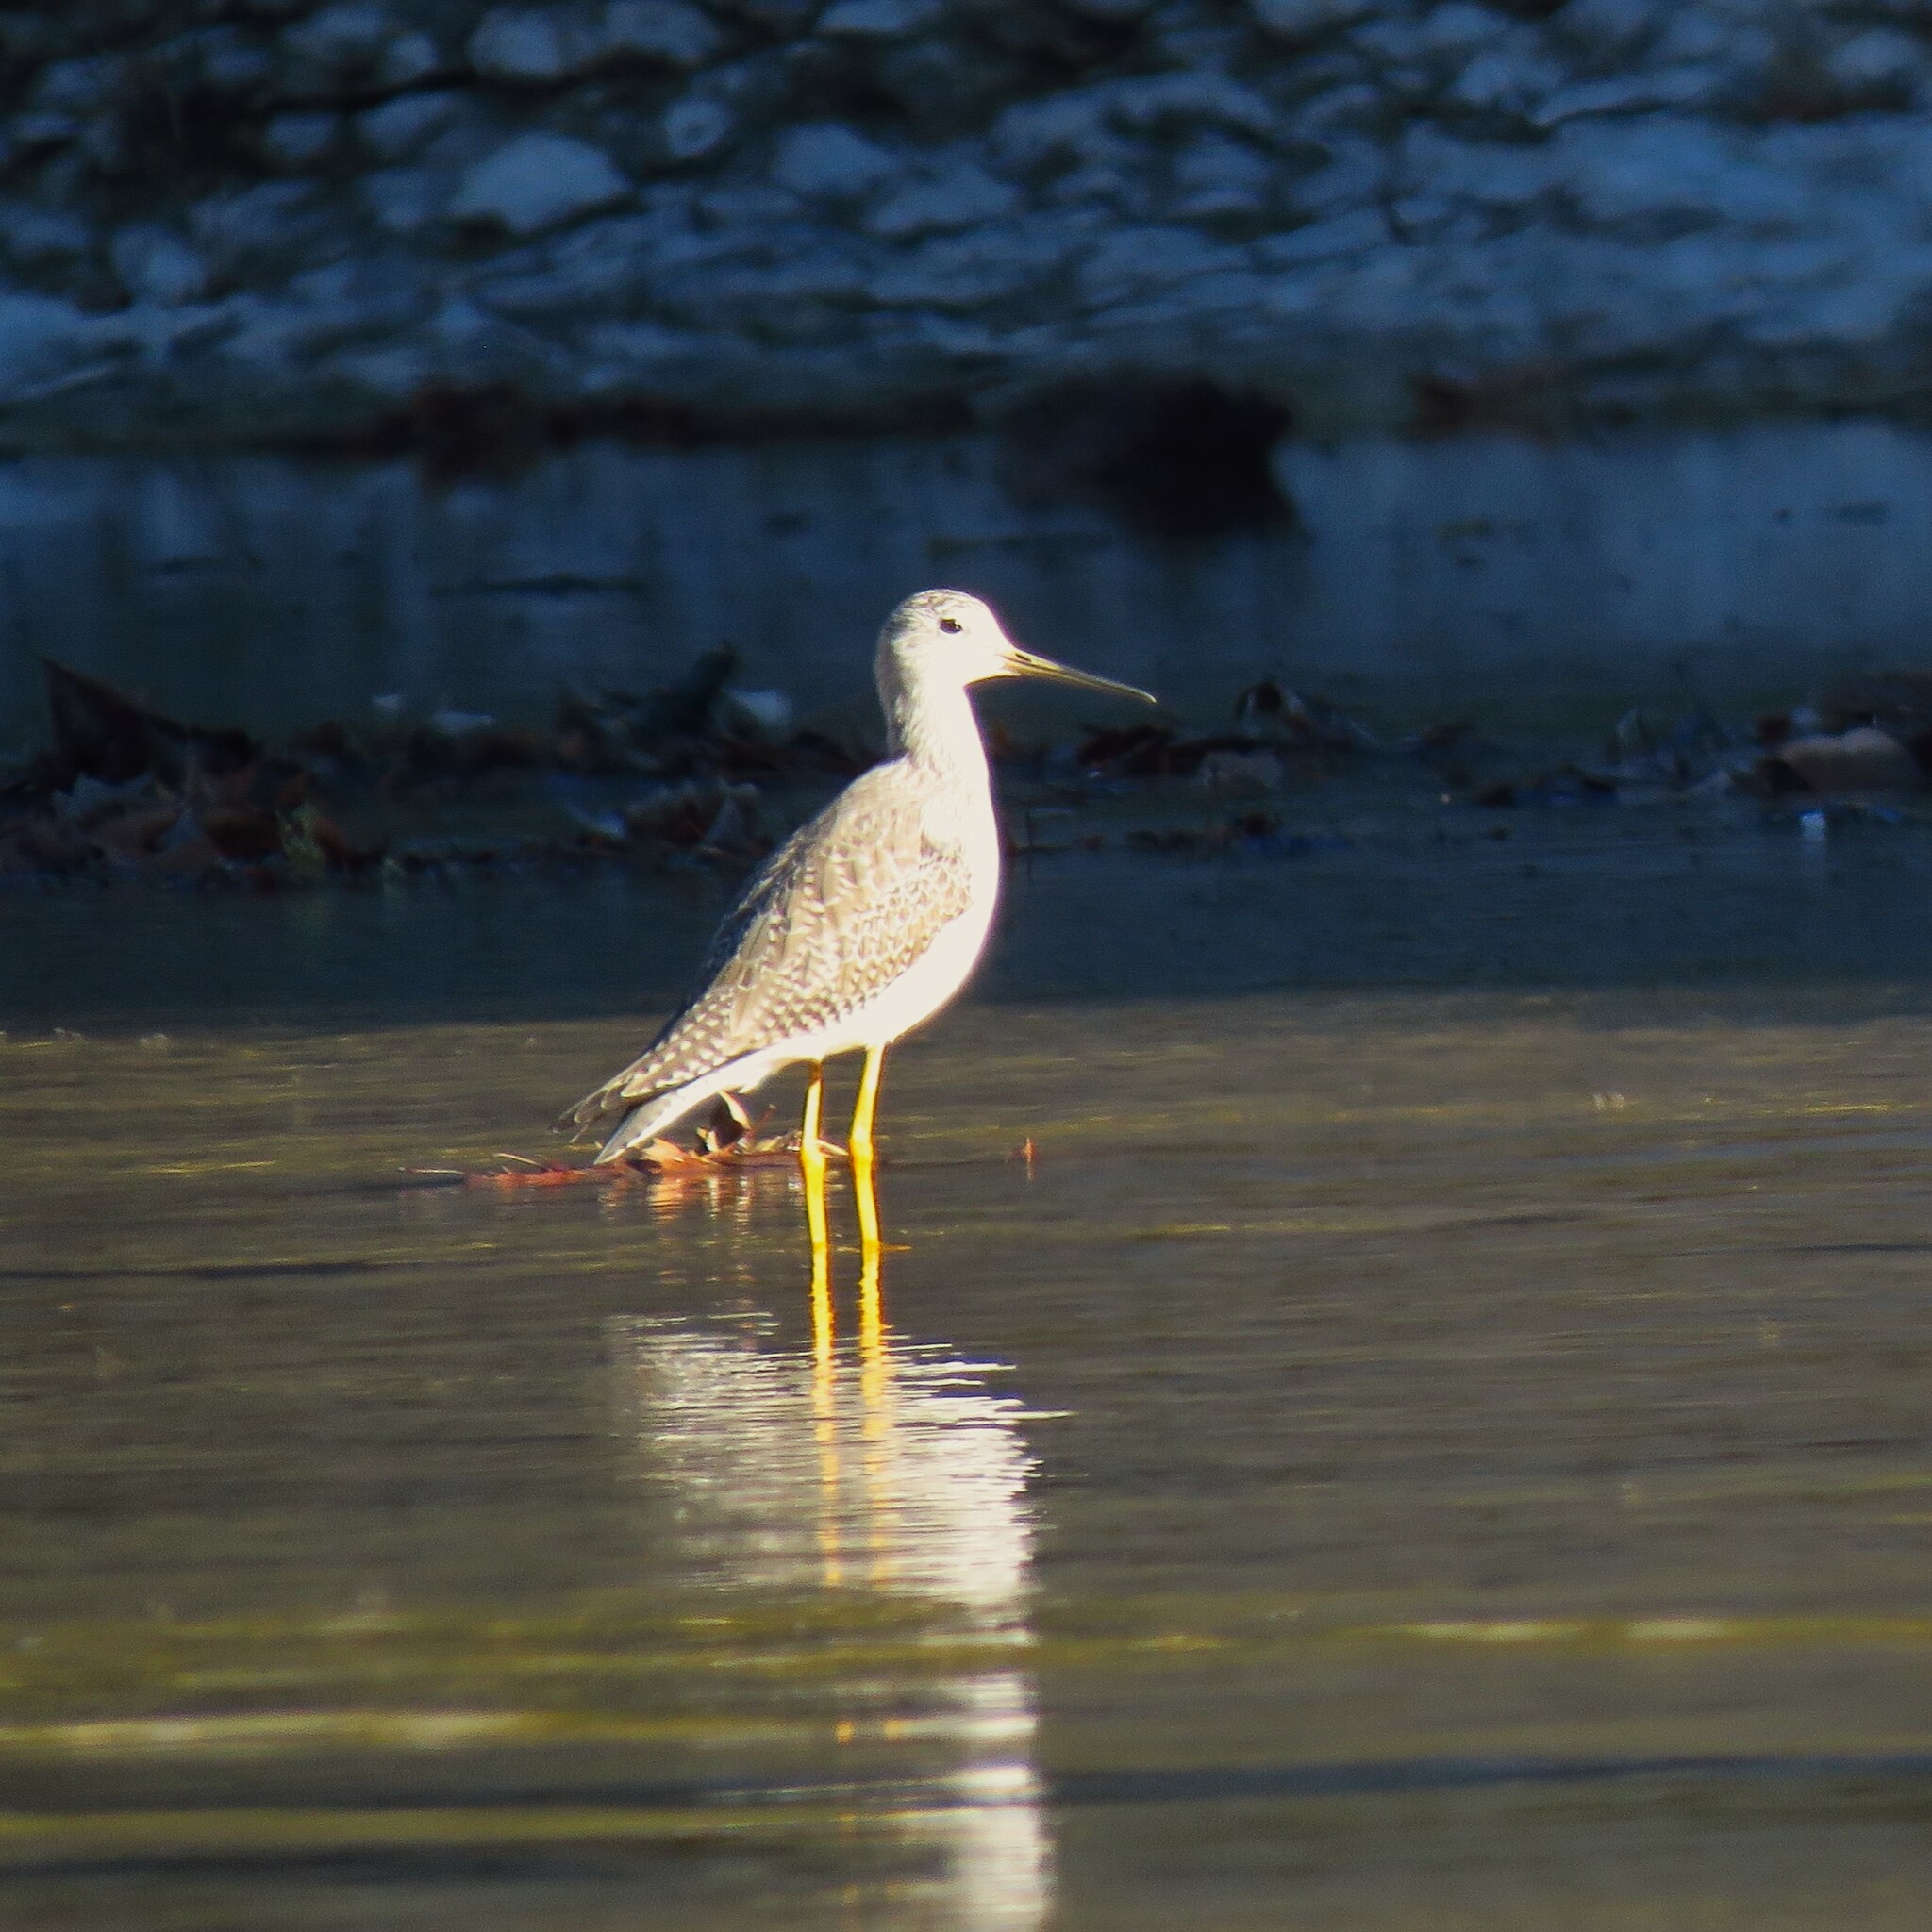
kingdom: Animalia
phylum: Chordata
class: Aves
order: Charadriiformes
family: Scolopacidae
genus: Tringa
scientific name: Tringa melanoleuca
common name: Greater yellowlegs
